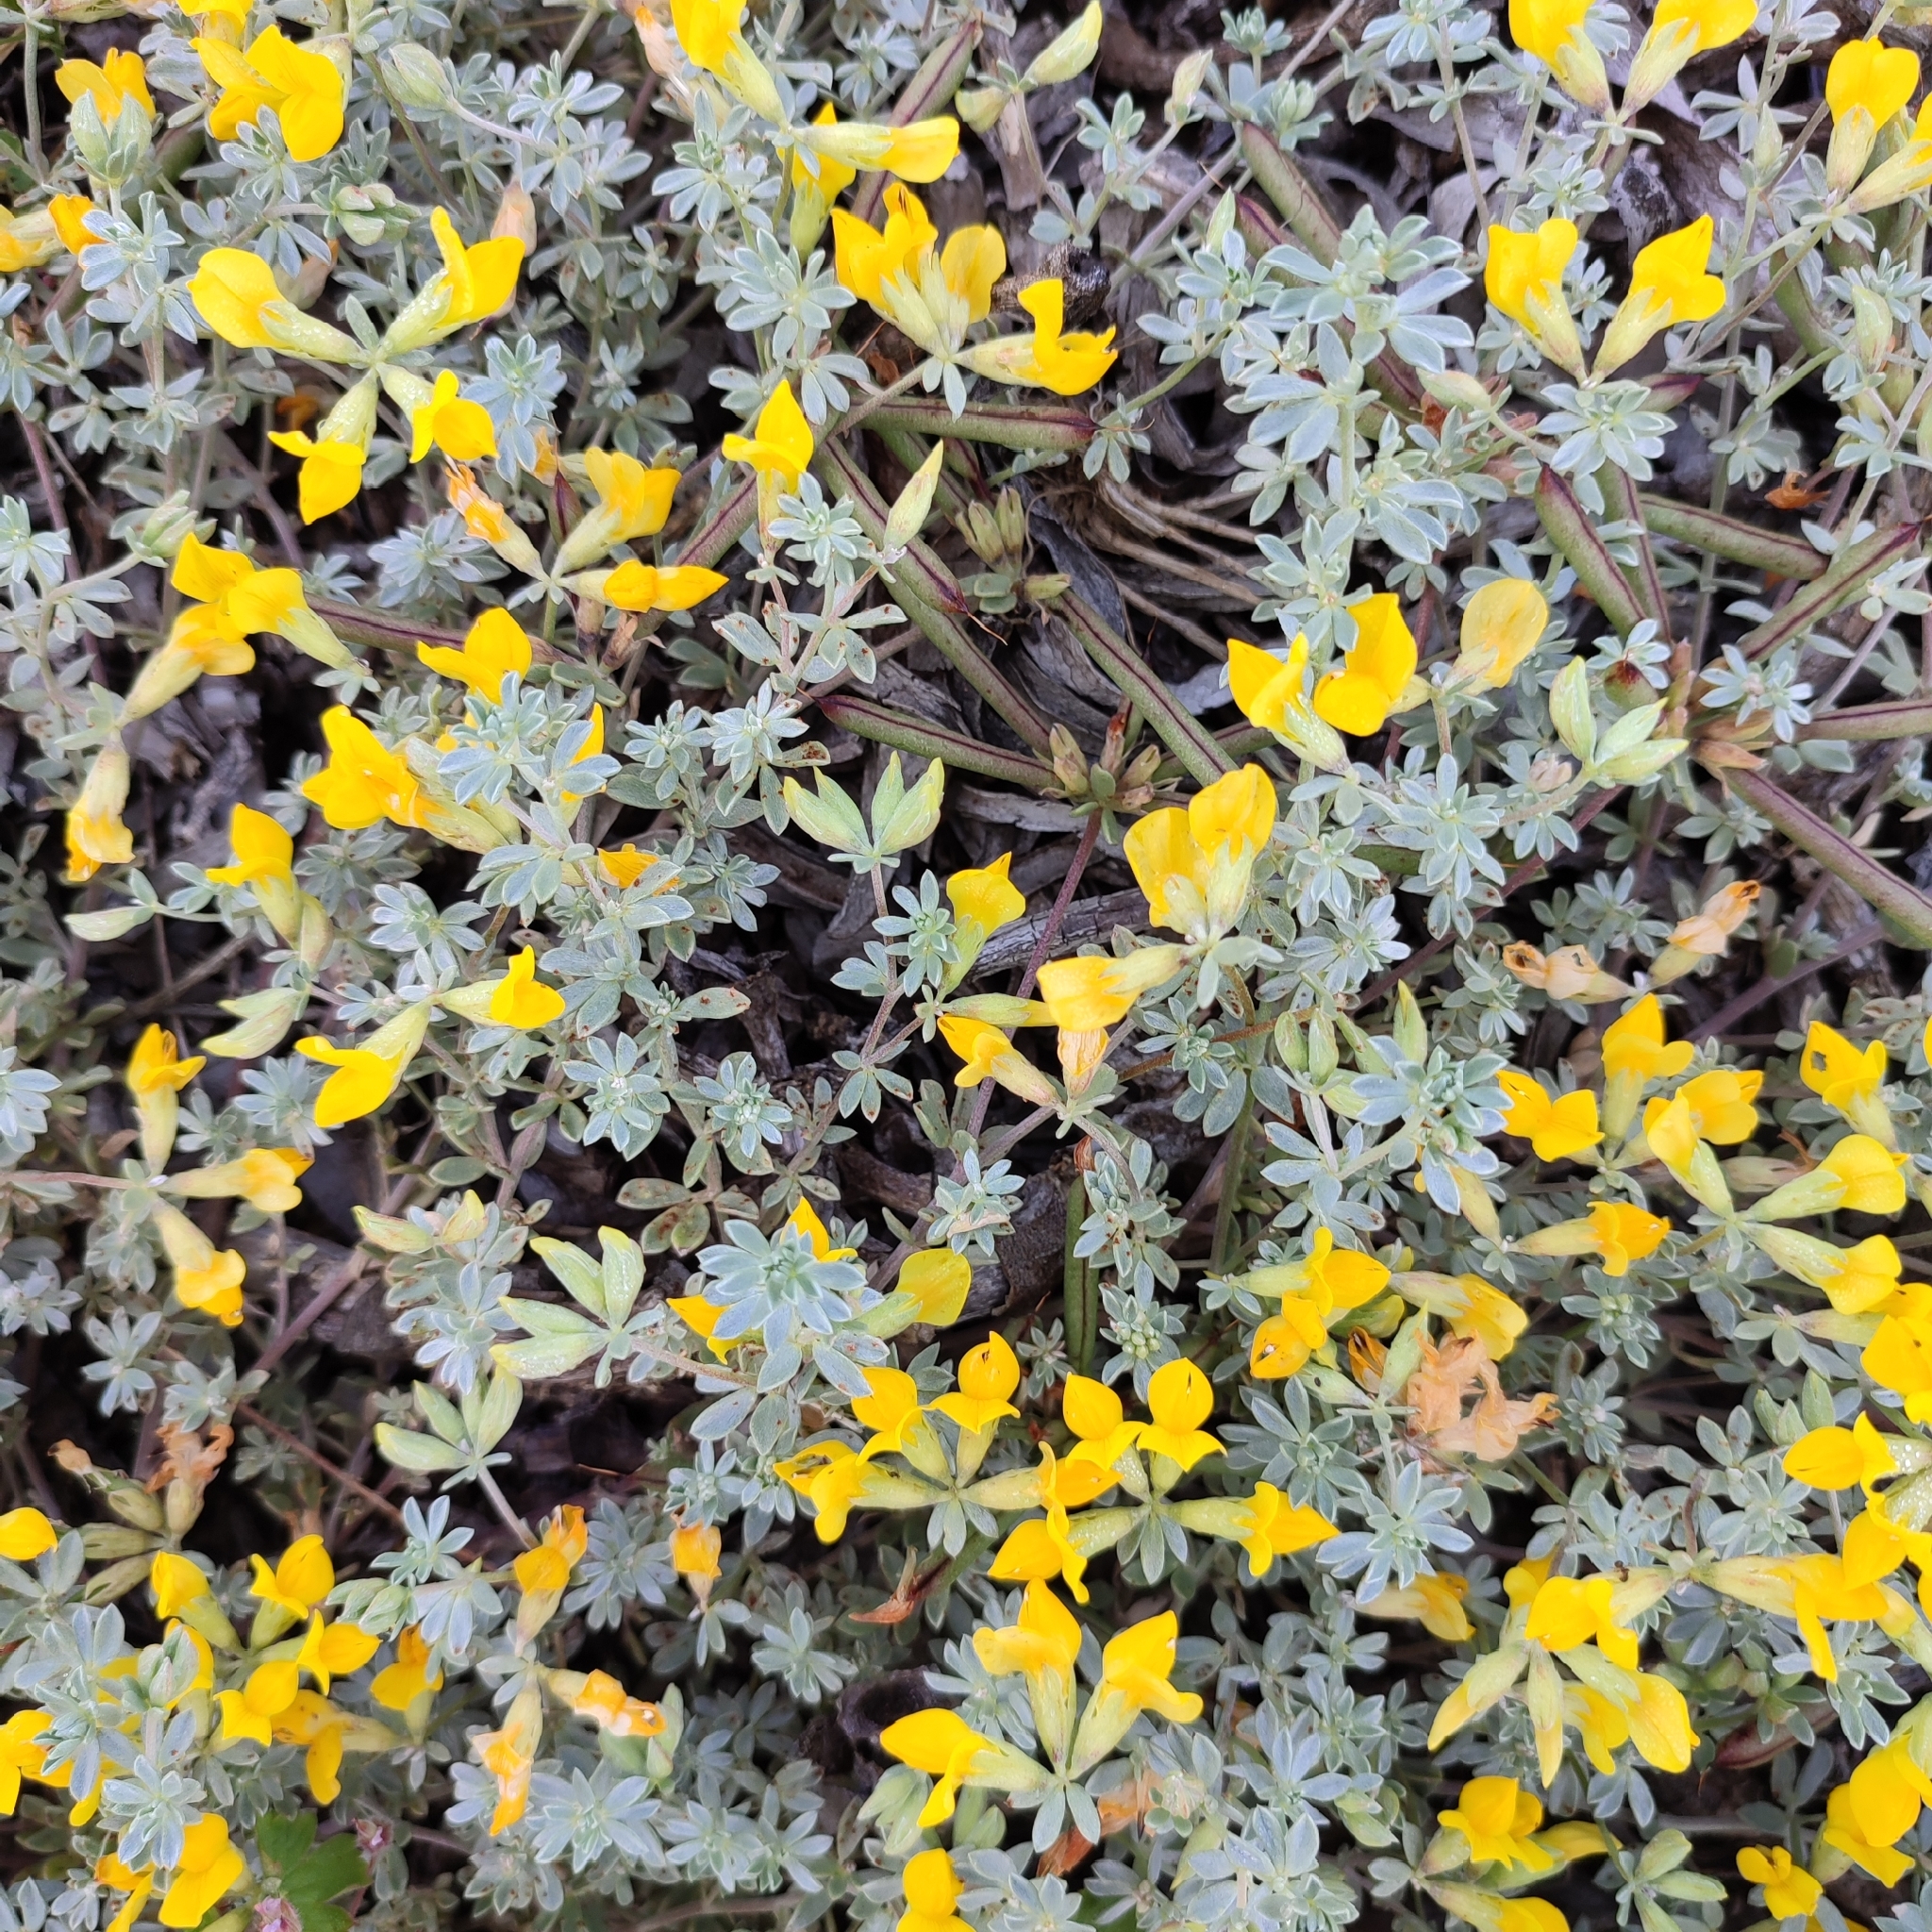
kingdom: Plantae
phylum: Tracheophyta
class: Magnoliopsida
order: Fabales
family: Fabaceae
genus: Lotus
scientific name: Lotus creticus
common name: Cretan bird's-foot trefoil
